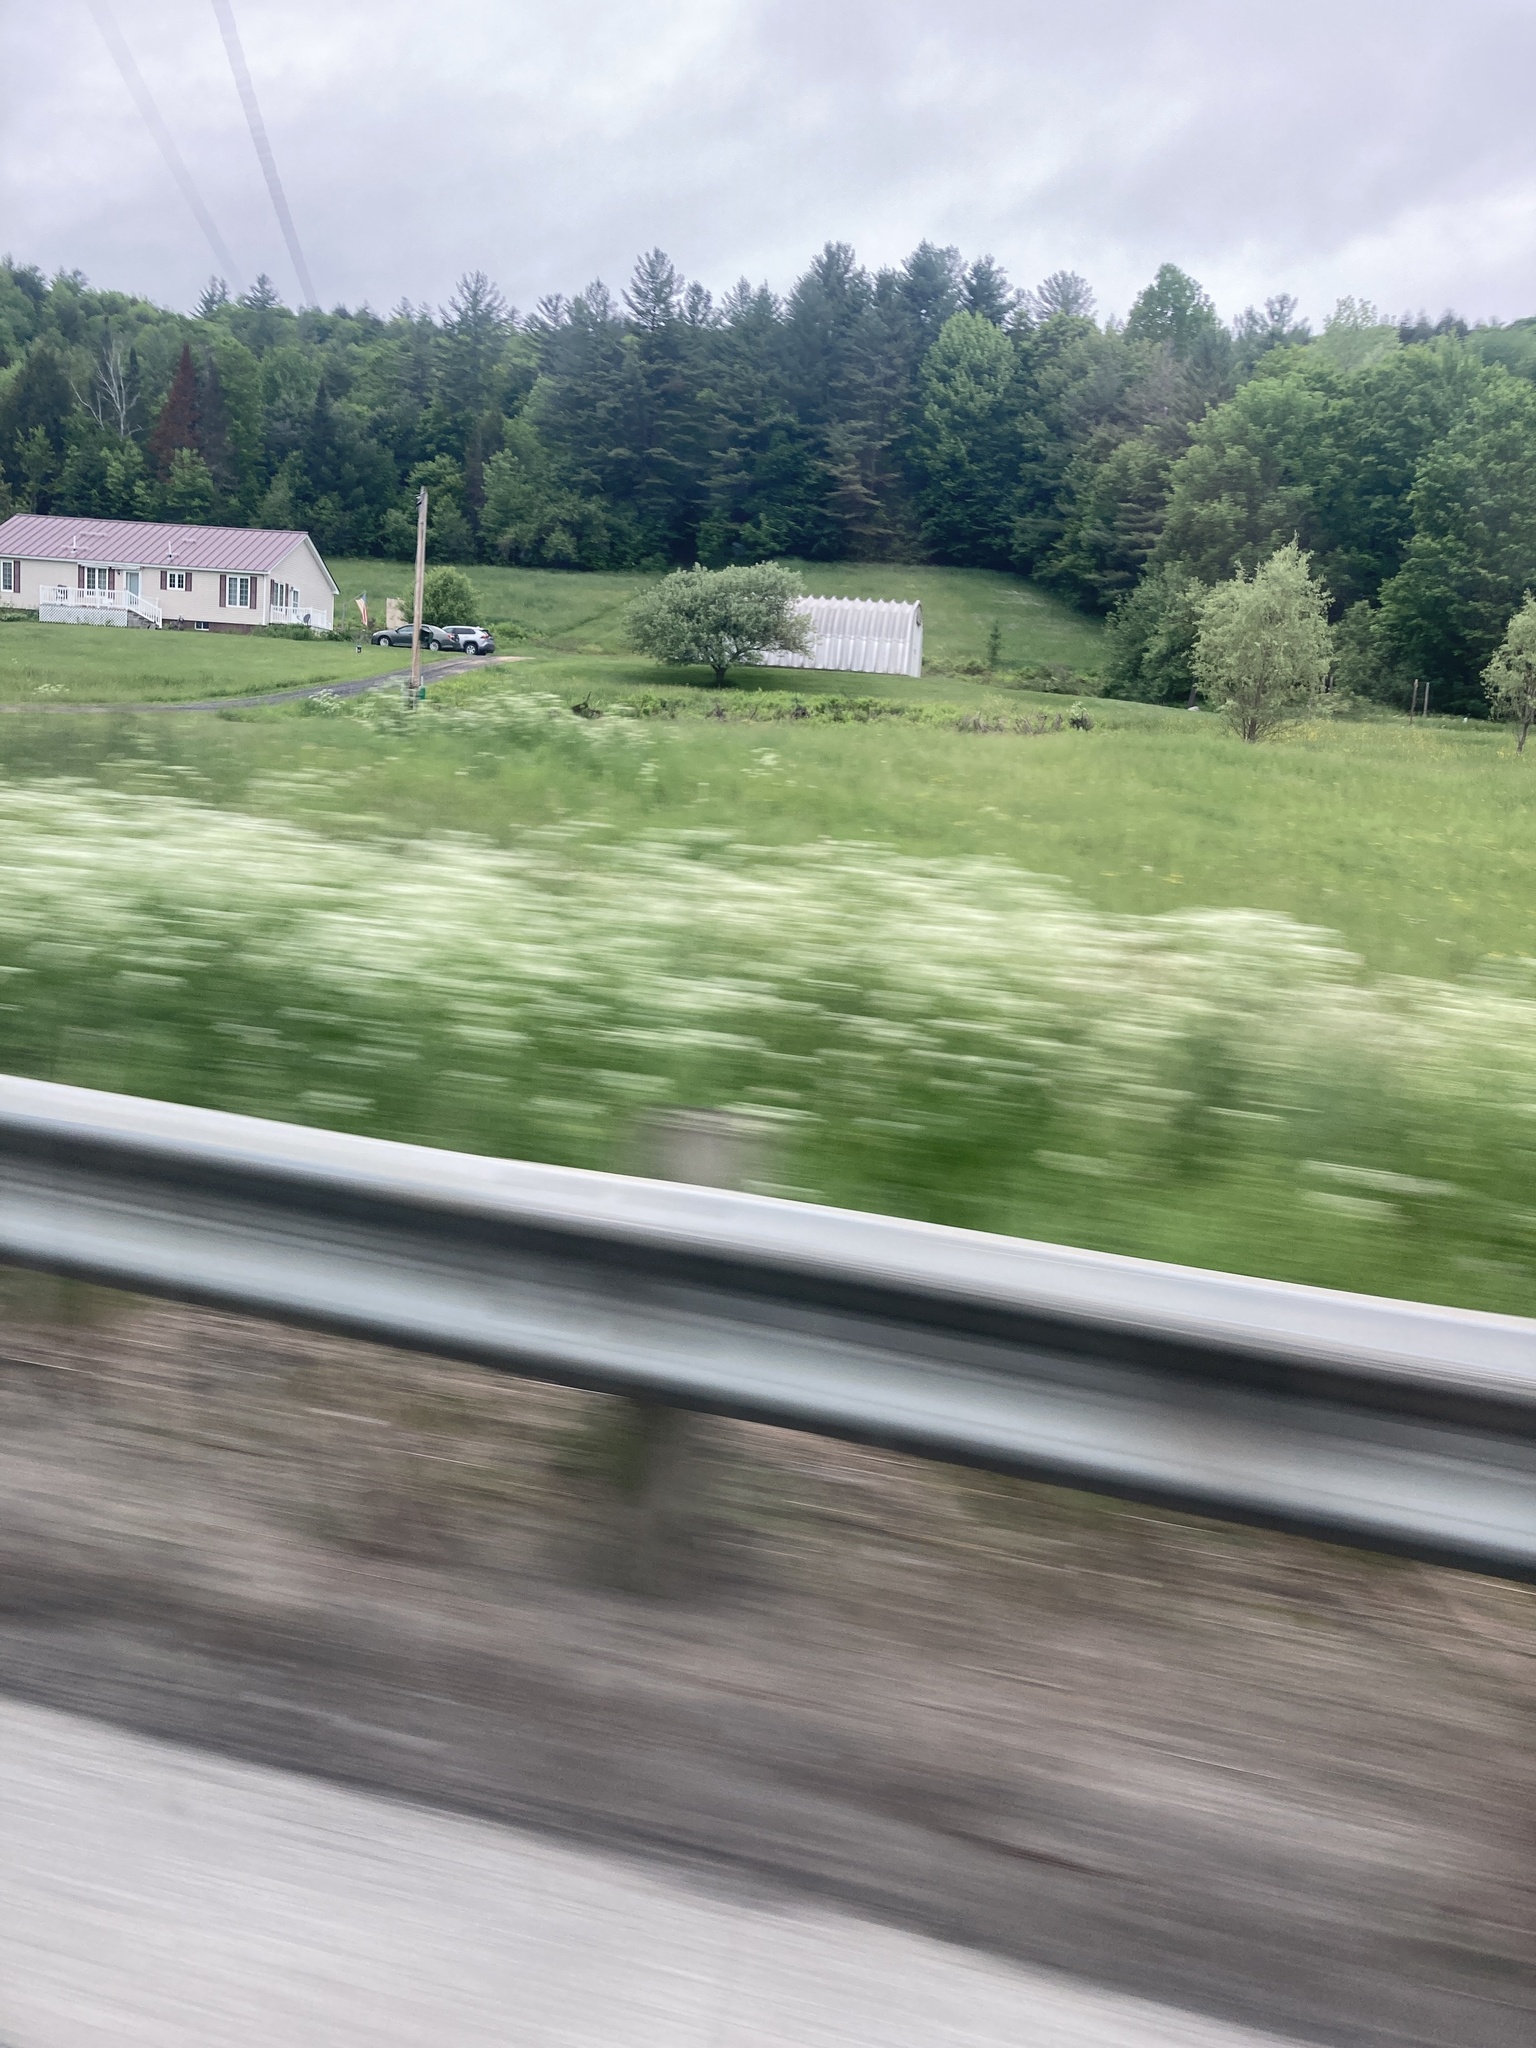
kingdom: Plantae
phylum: Tracheophyta
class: Magnoliopsida
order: Apiales
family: Apiaceae
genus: Anthriscus
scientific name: Anthriscus sylvestris
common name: Cow parsley
